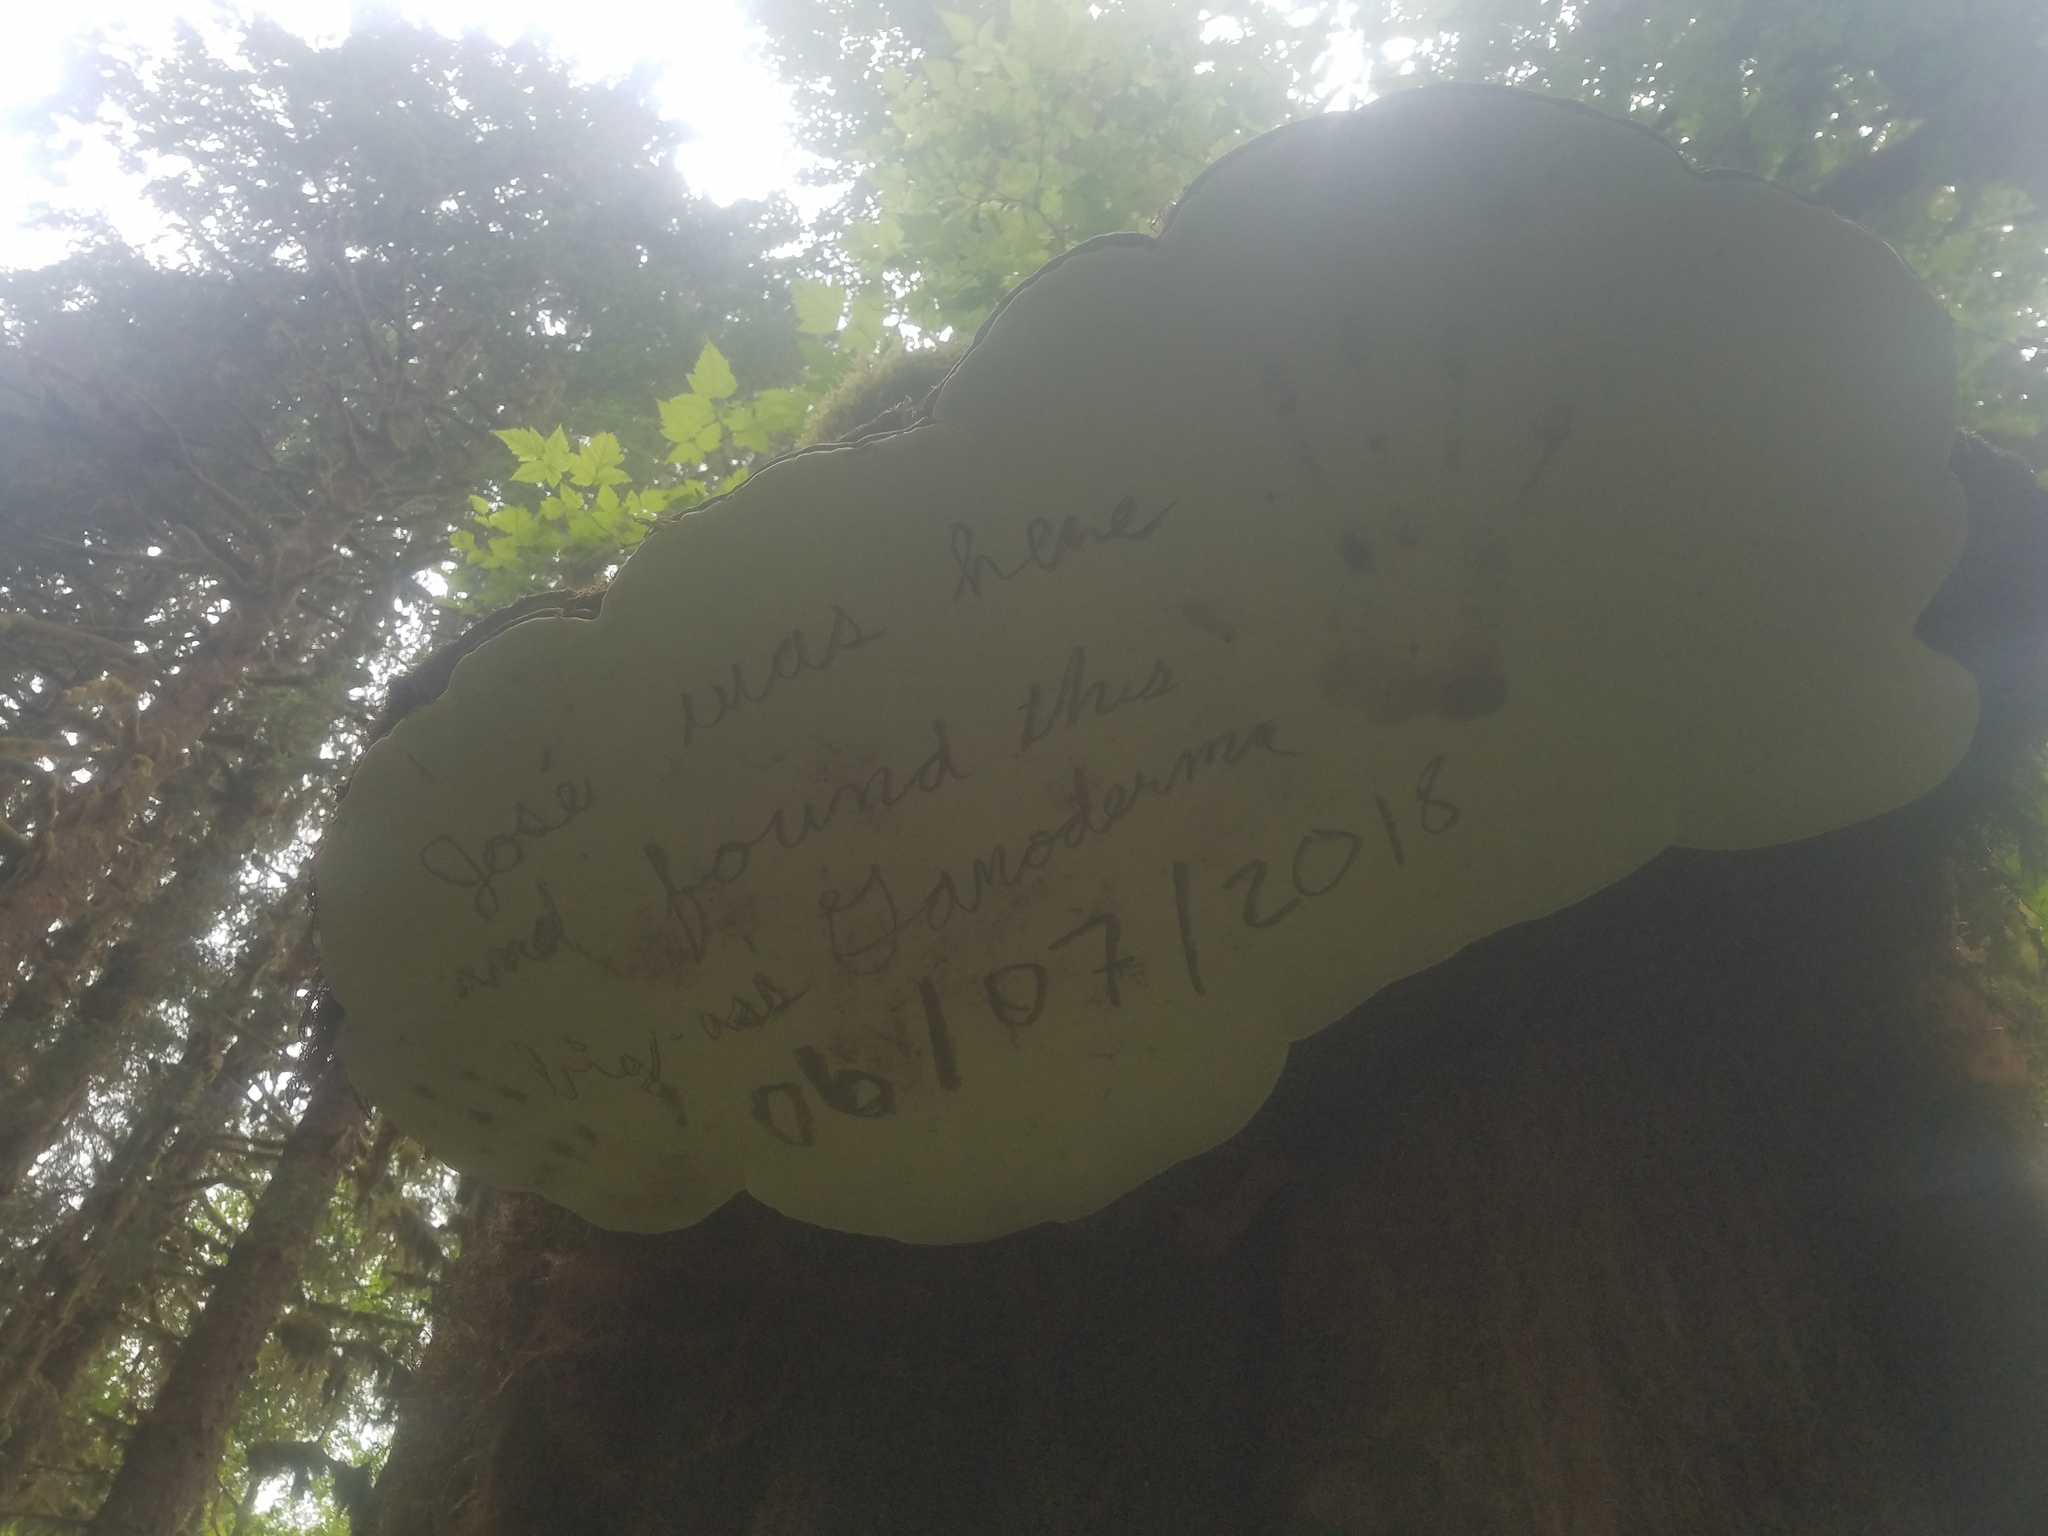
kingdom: Fungi
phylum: Basidiomycota
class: Agaricomycetes
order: Polyporales
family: Polyporaceae
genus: Ganoderma
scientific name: Ganoderma applanatum
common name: Artist's bracket
